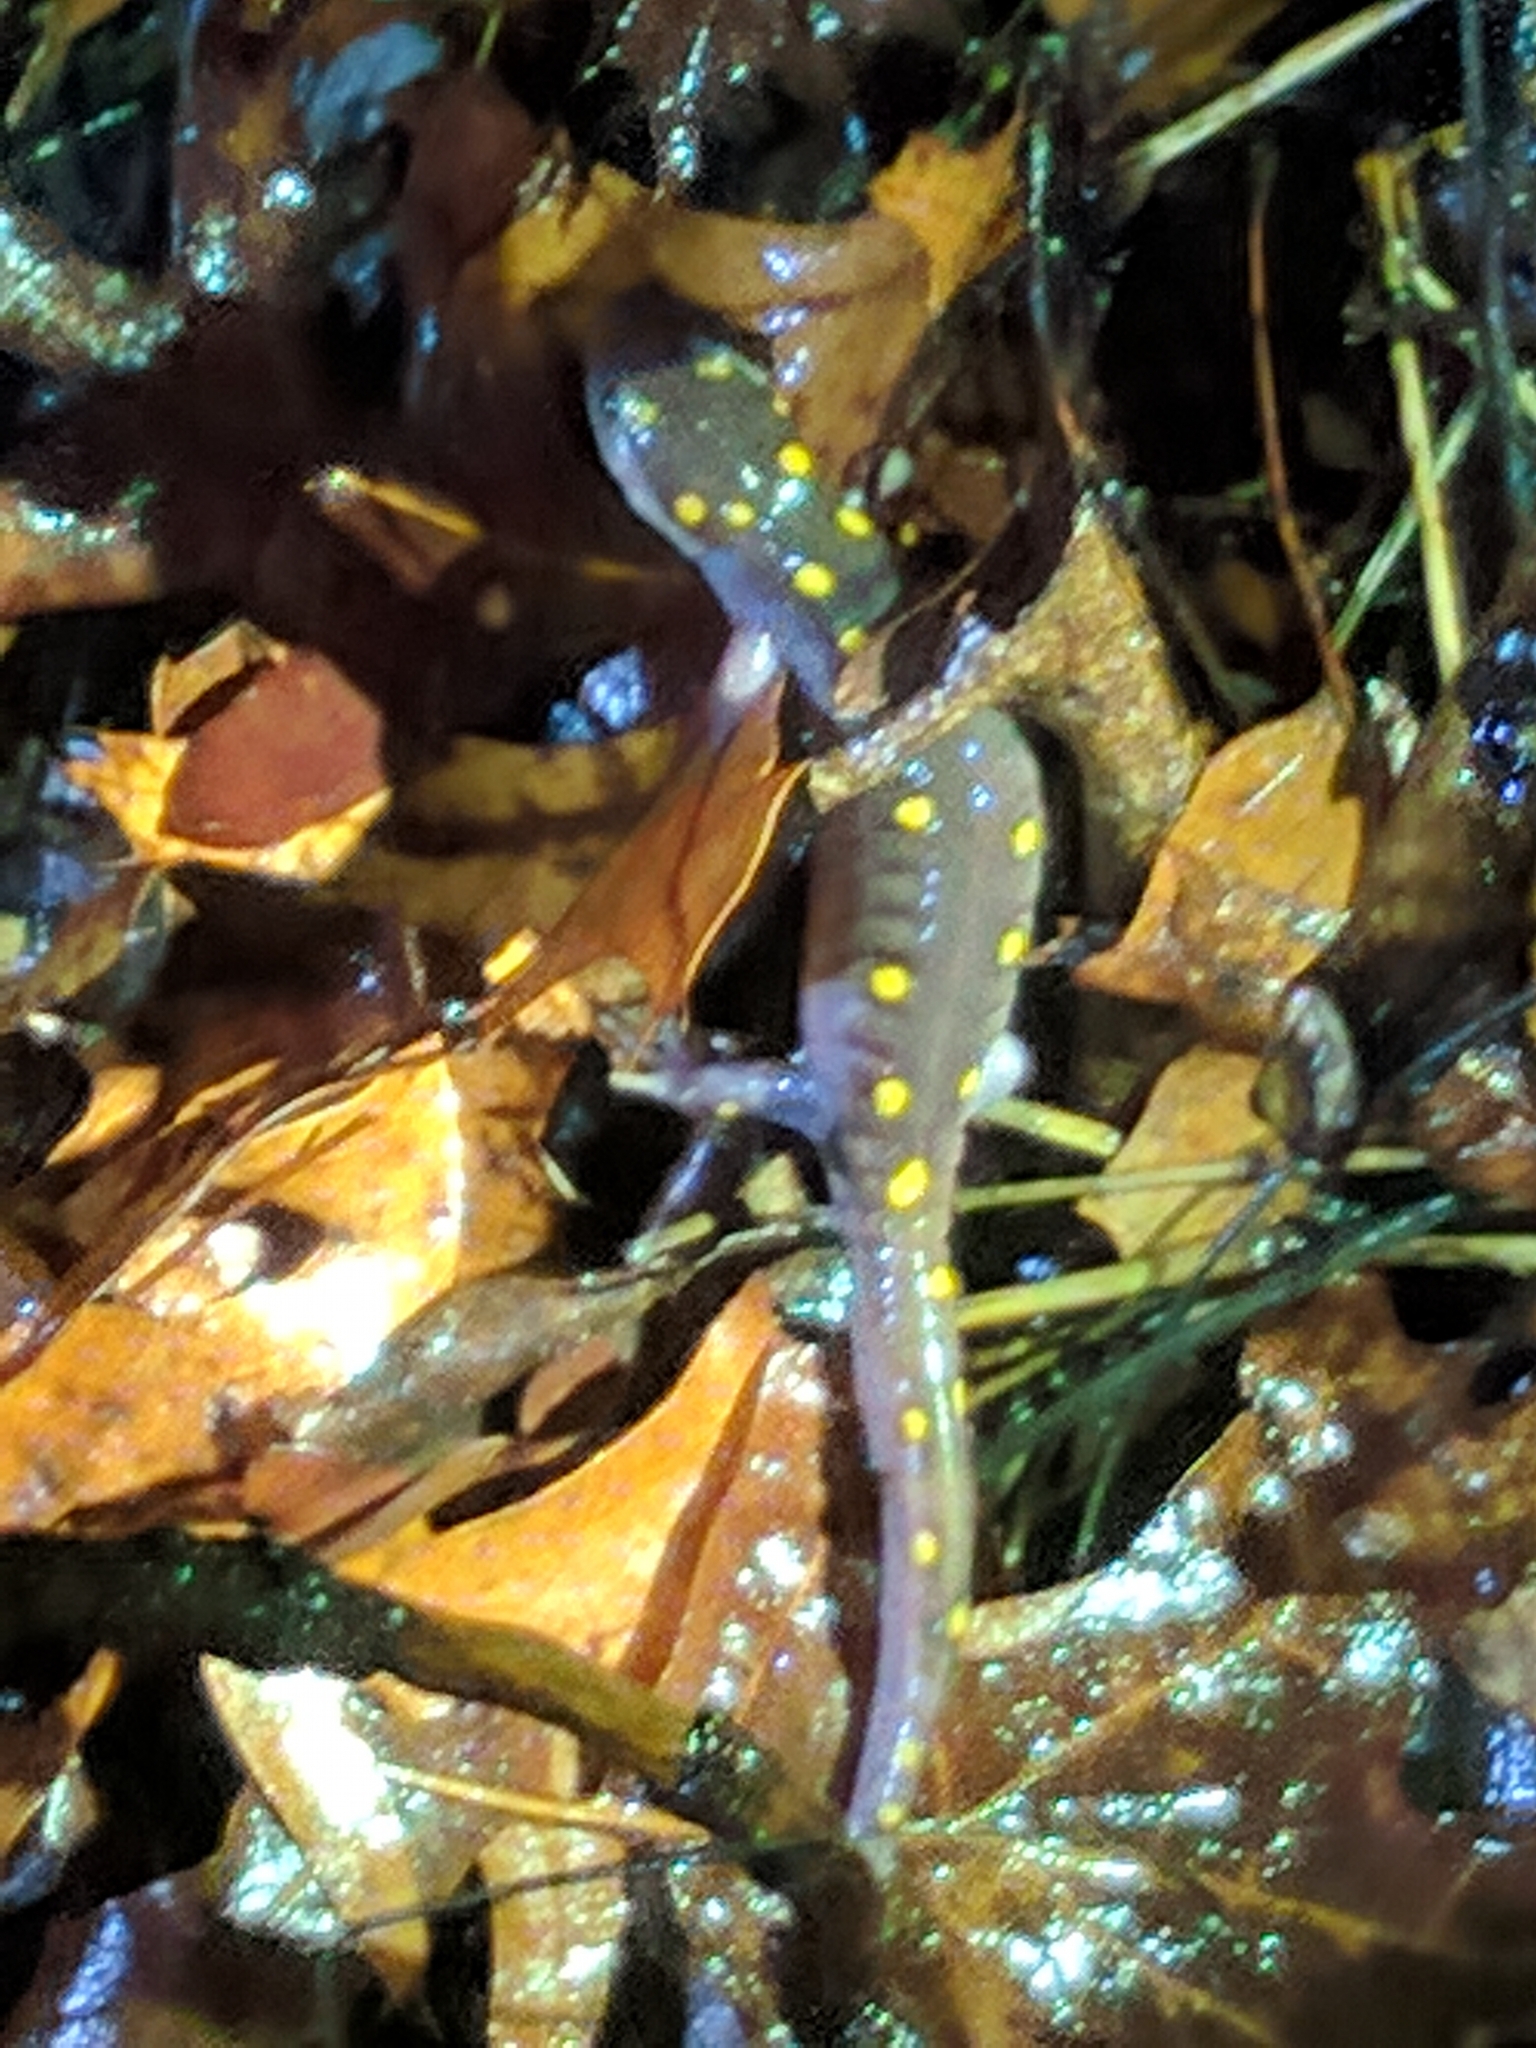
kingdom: Animalia
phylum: Chordata
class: Amphibia
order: Caudata
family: Ambystomatidae
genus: Ambystoma
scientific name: Ambystoma maculatum
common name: Spotted salamander
